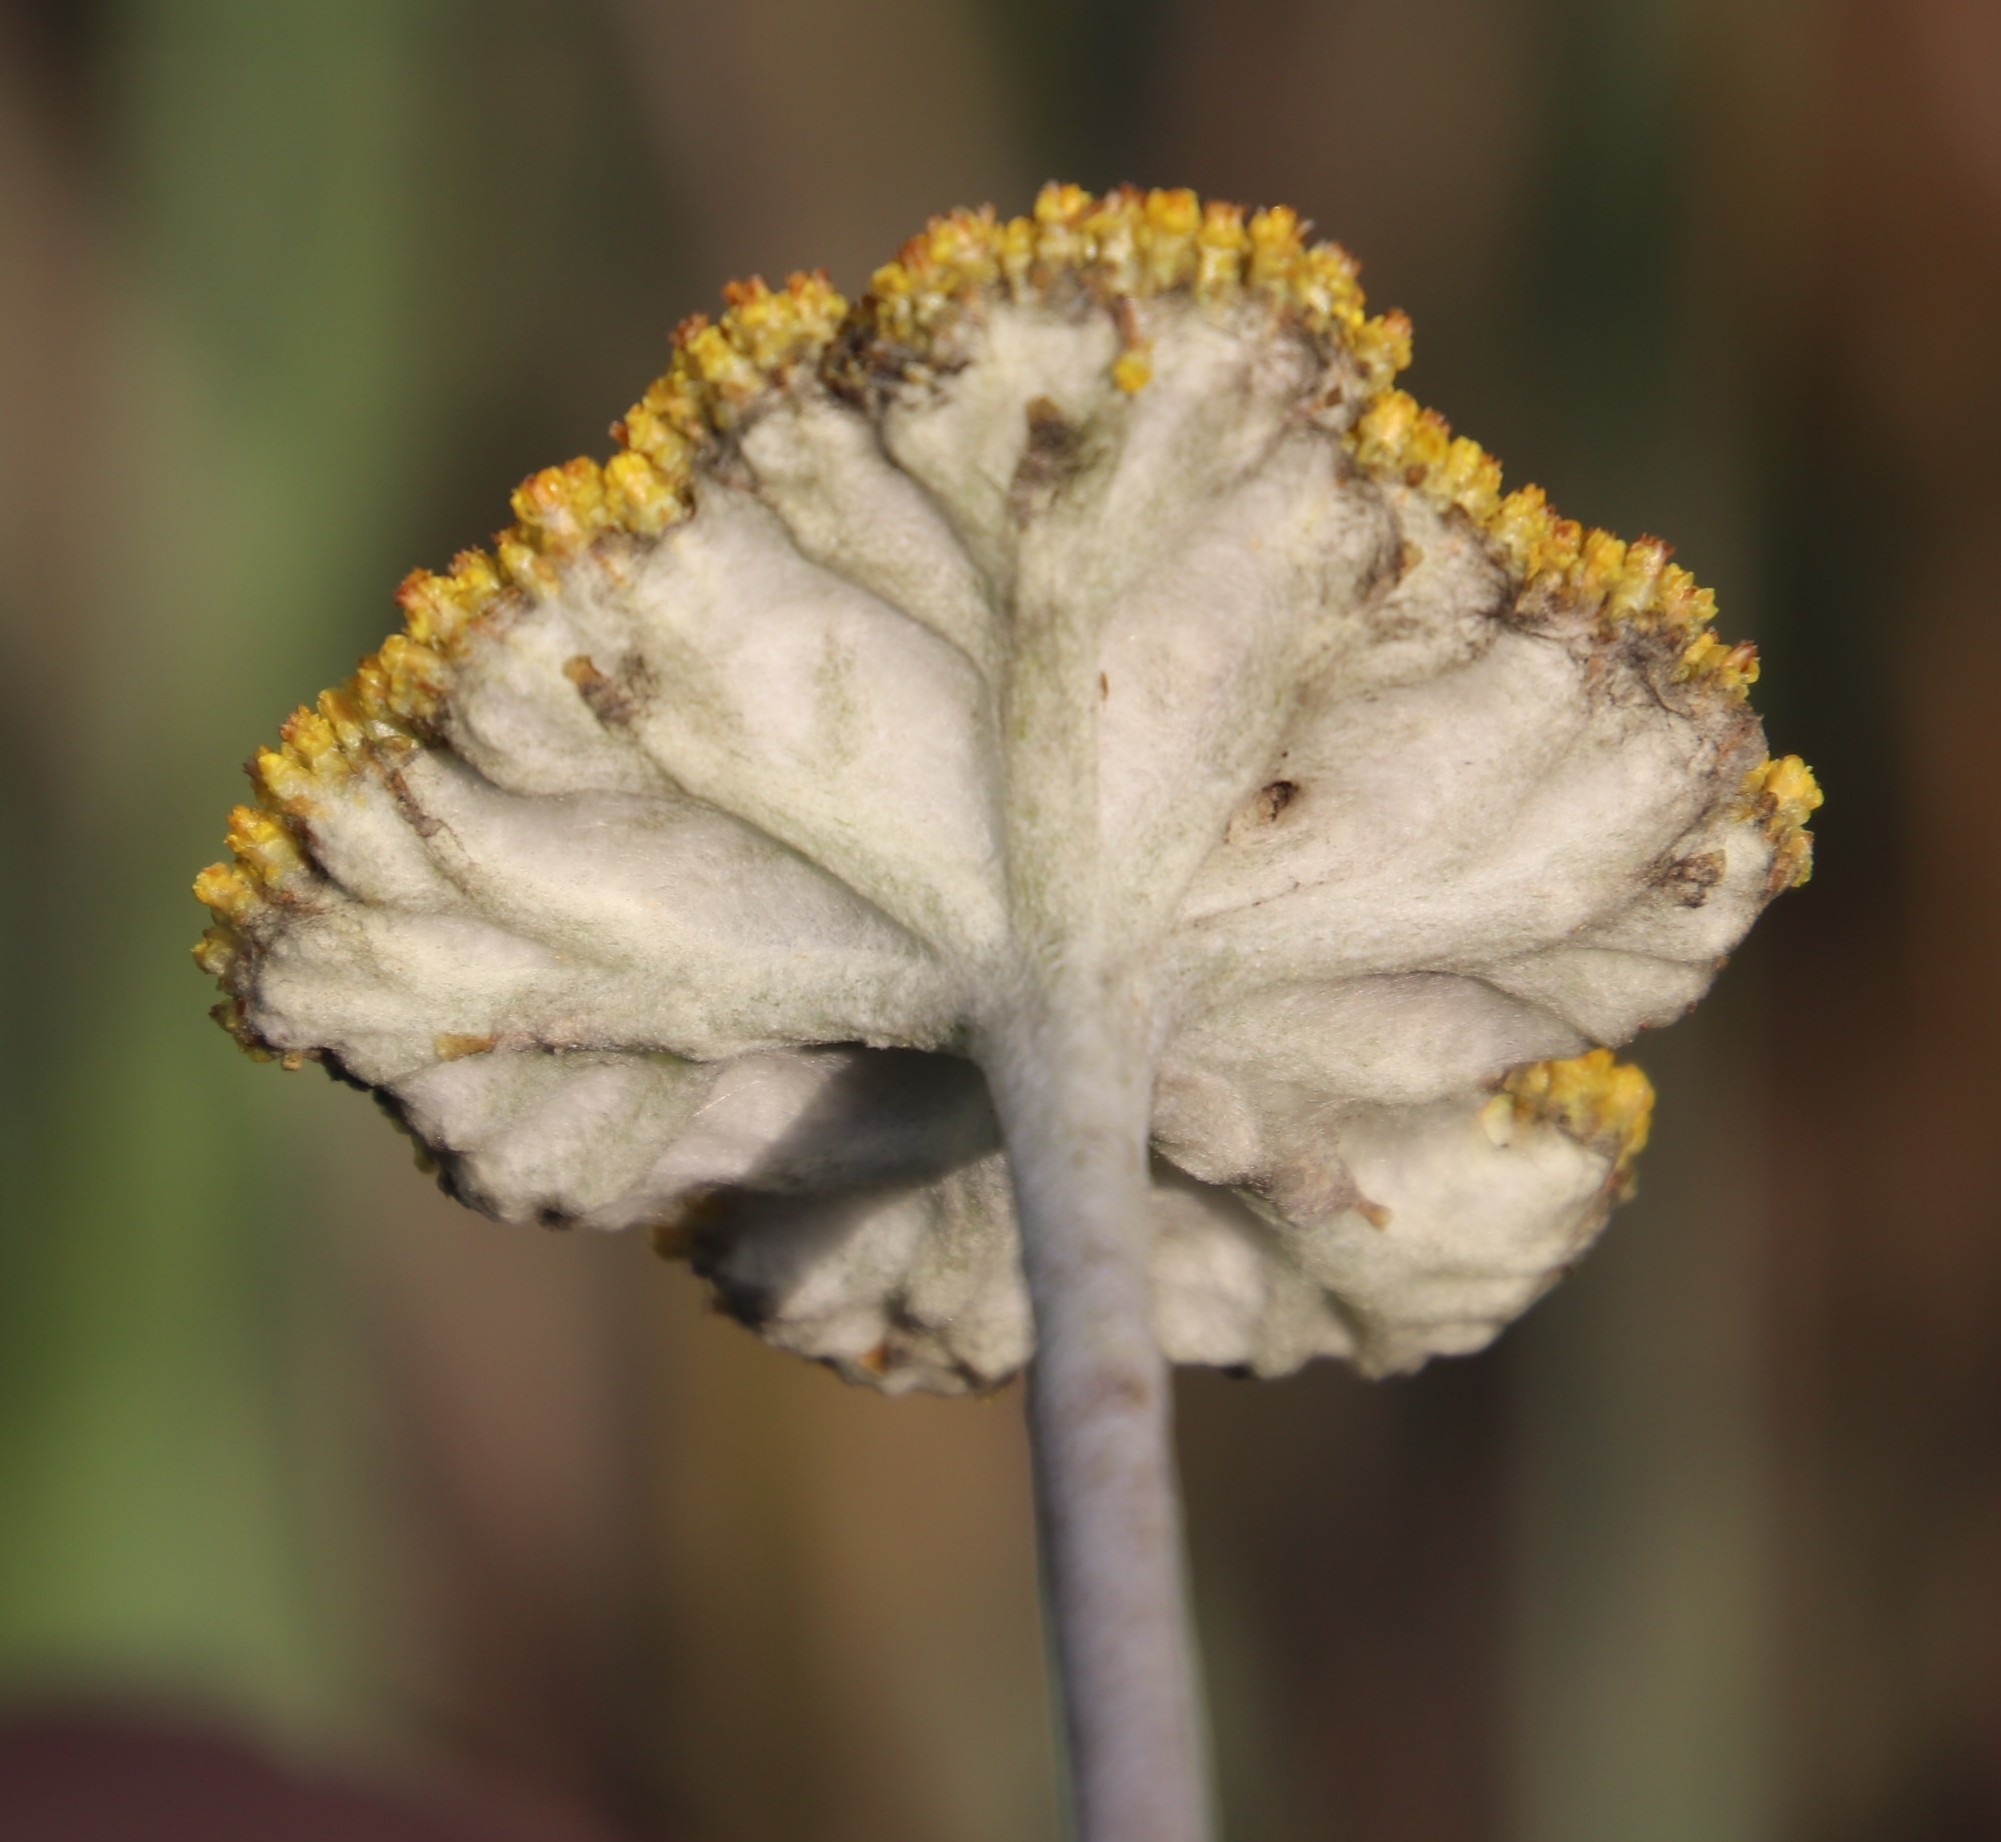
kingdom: Plantae
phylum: Tracheophyta
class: Magnoliopsida
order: Asterales
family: Asteraceae
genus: Helichrysum
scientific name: Helichrysum umbraculigerum
